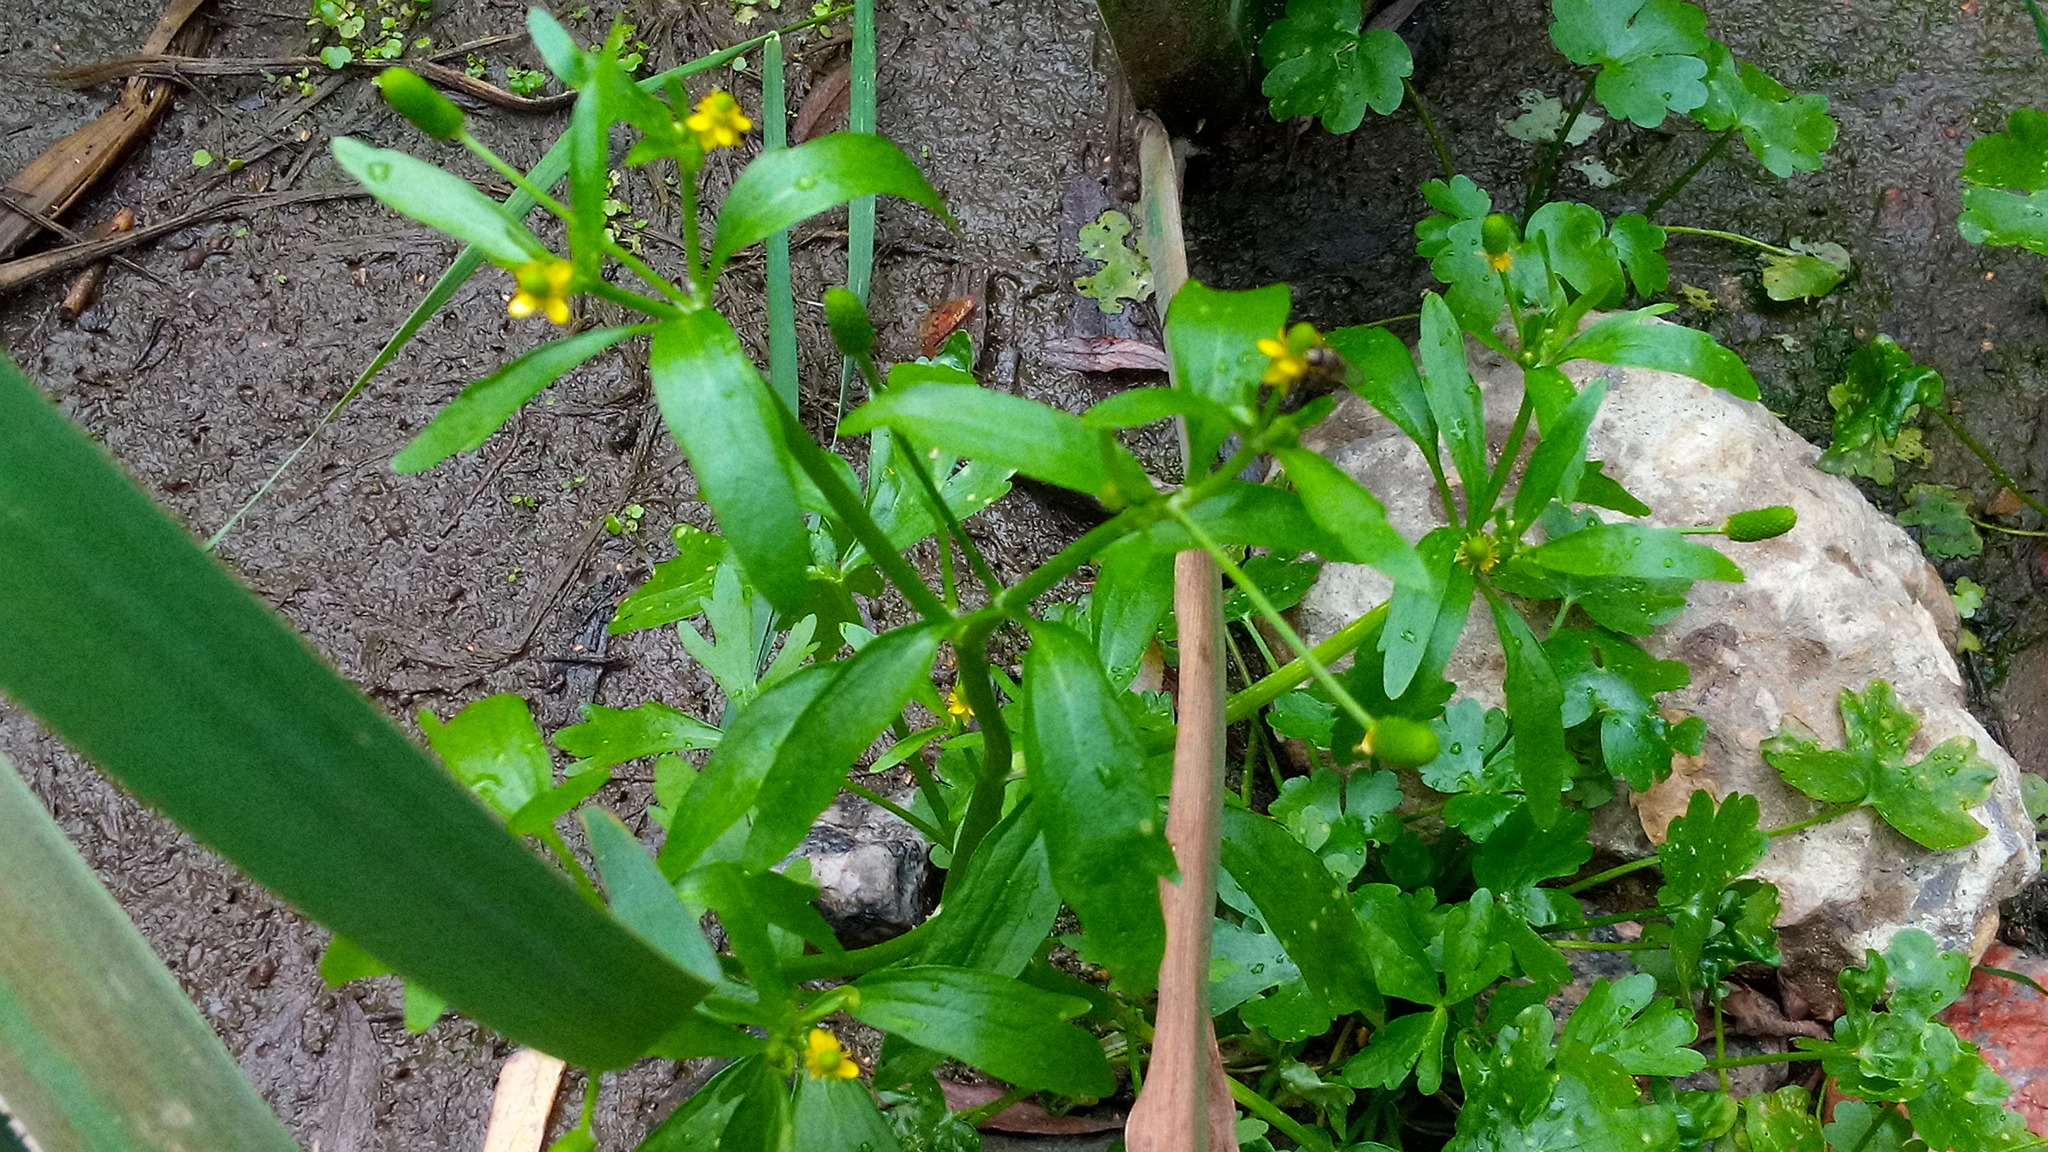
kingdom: Plantae
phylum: Tracheophyta
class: Magnoliopsida
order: Ranunculales
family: Ranunculaceae
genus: Ranunculus
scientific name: Ranunculus sceleratus
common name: Celery-leaved buttercup
